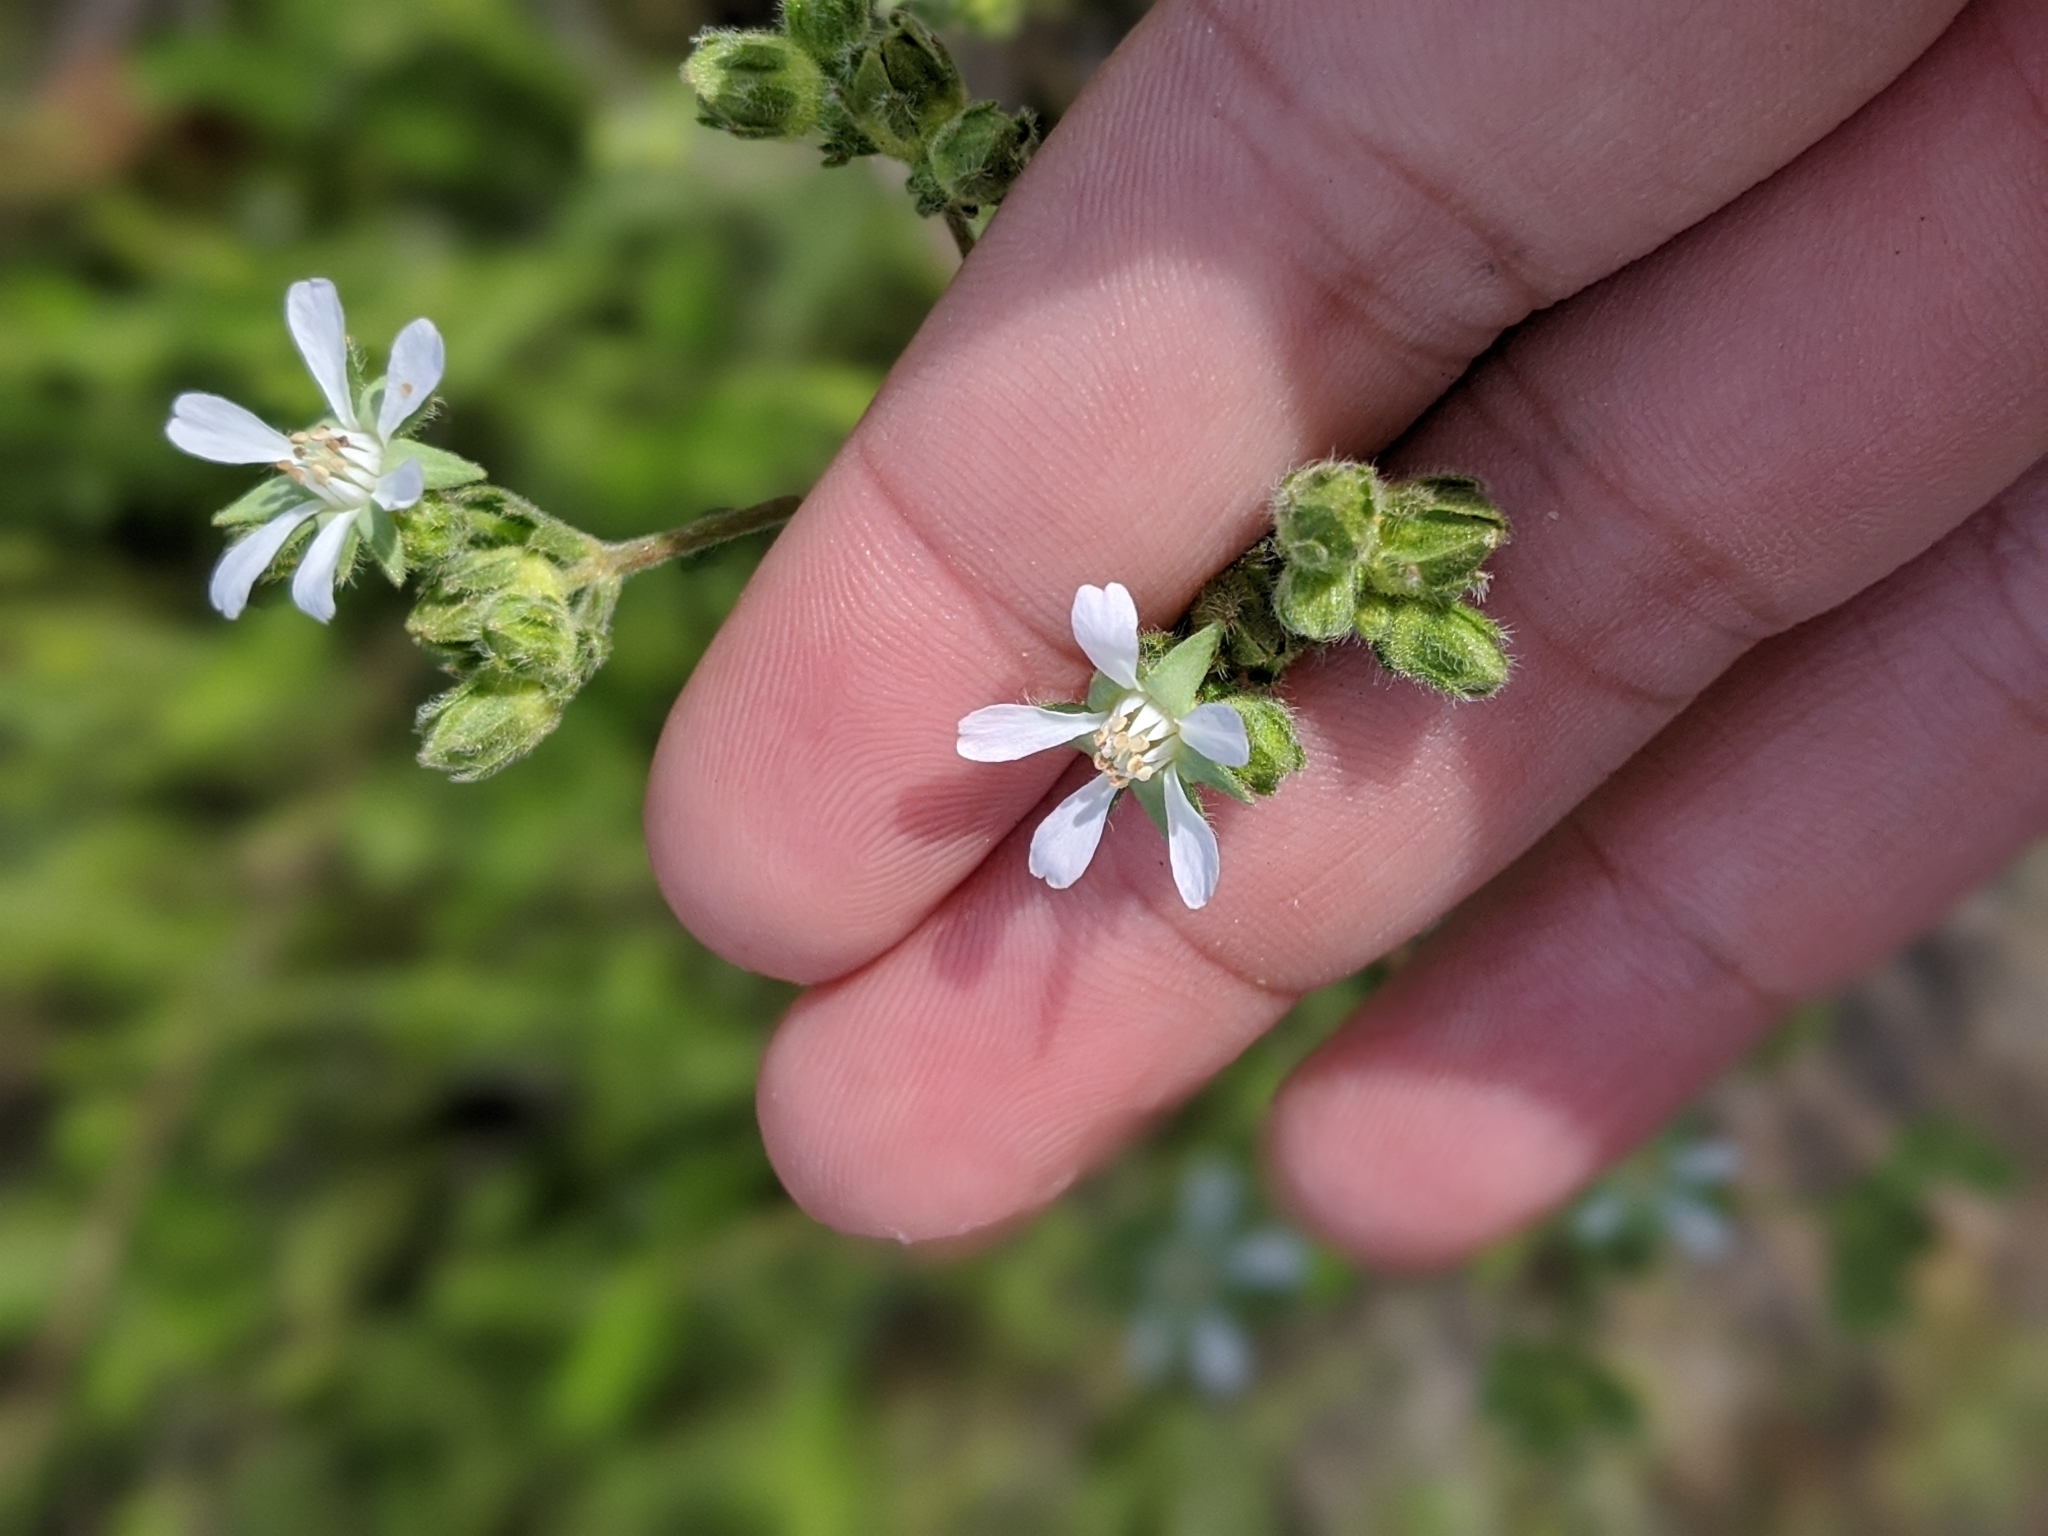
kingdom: Plantae
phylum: Tracheophyta
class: Magnoliopsida
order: Rosales
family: Rosaceae
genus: Potentilla
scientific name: Potentilla micheneri
